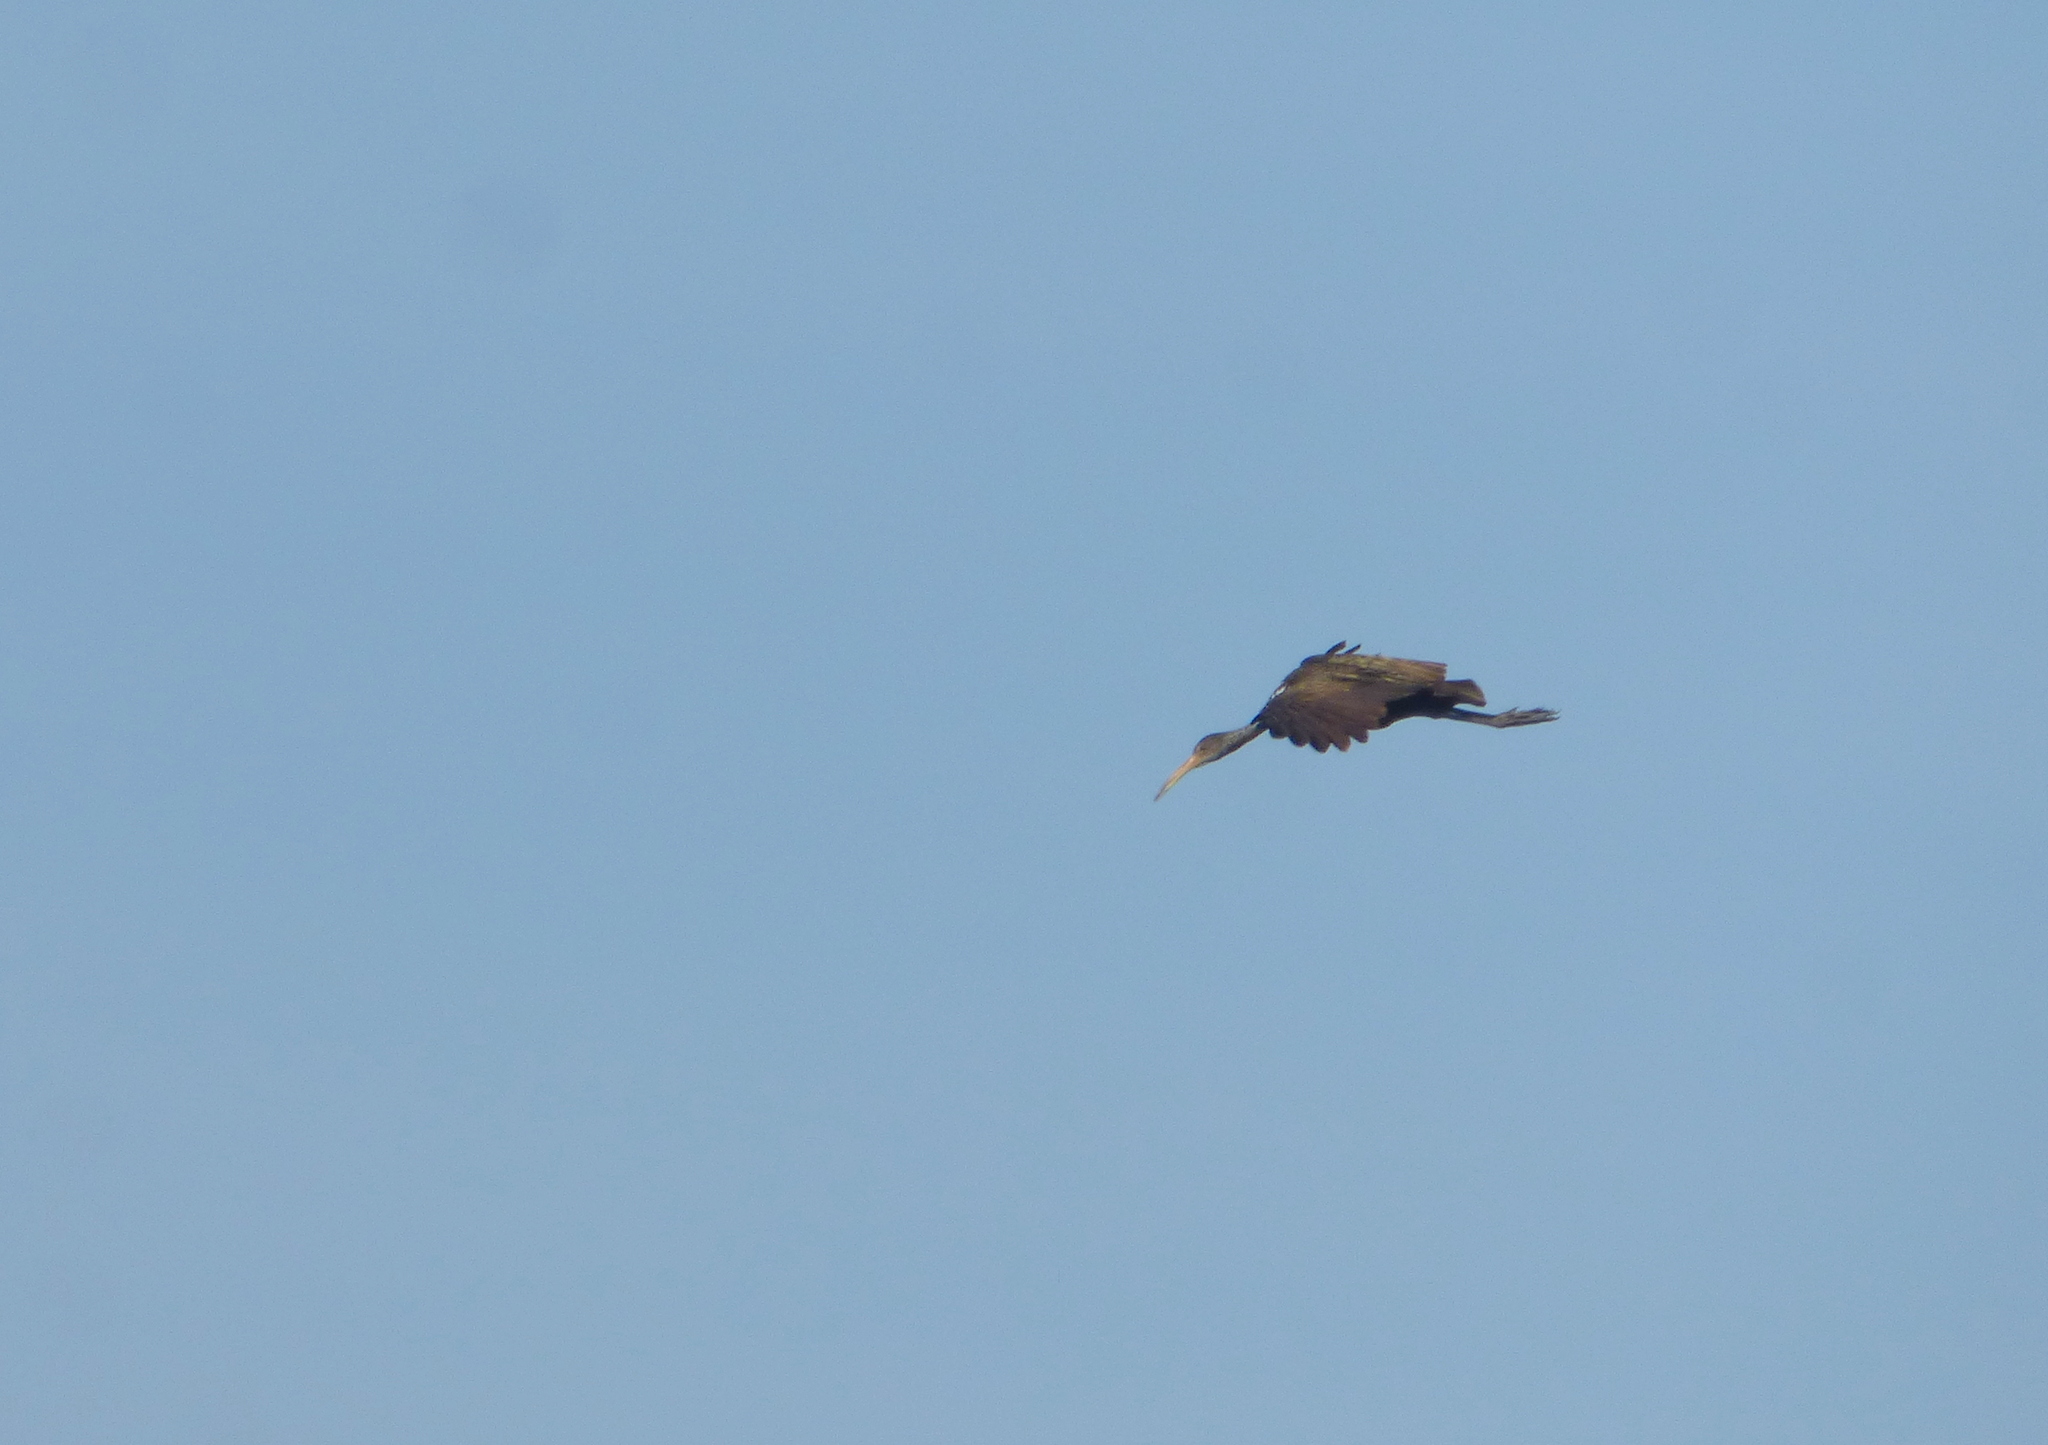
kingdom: Animalia
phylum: Chordata
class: Aves
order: Gruiformes
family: Aramidae
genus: Aramus
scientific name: Aramus guarauna
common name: Limpkin
